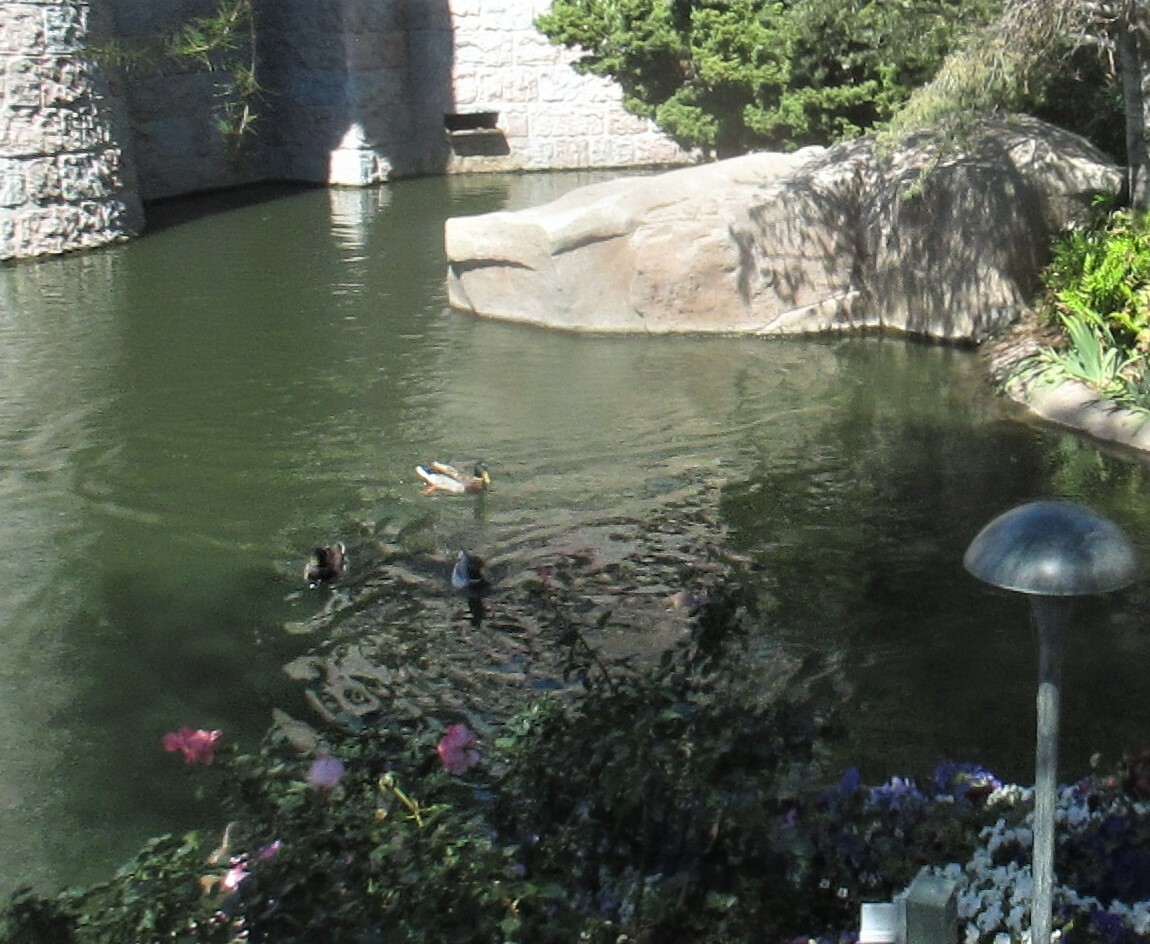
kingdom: Animalia
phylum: Chordata
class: Aves
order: Anseriformes
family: Anatidae
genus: Anas
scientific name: Anas platyrhynchos
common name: Mallard
